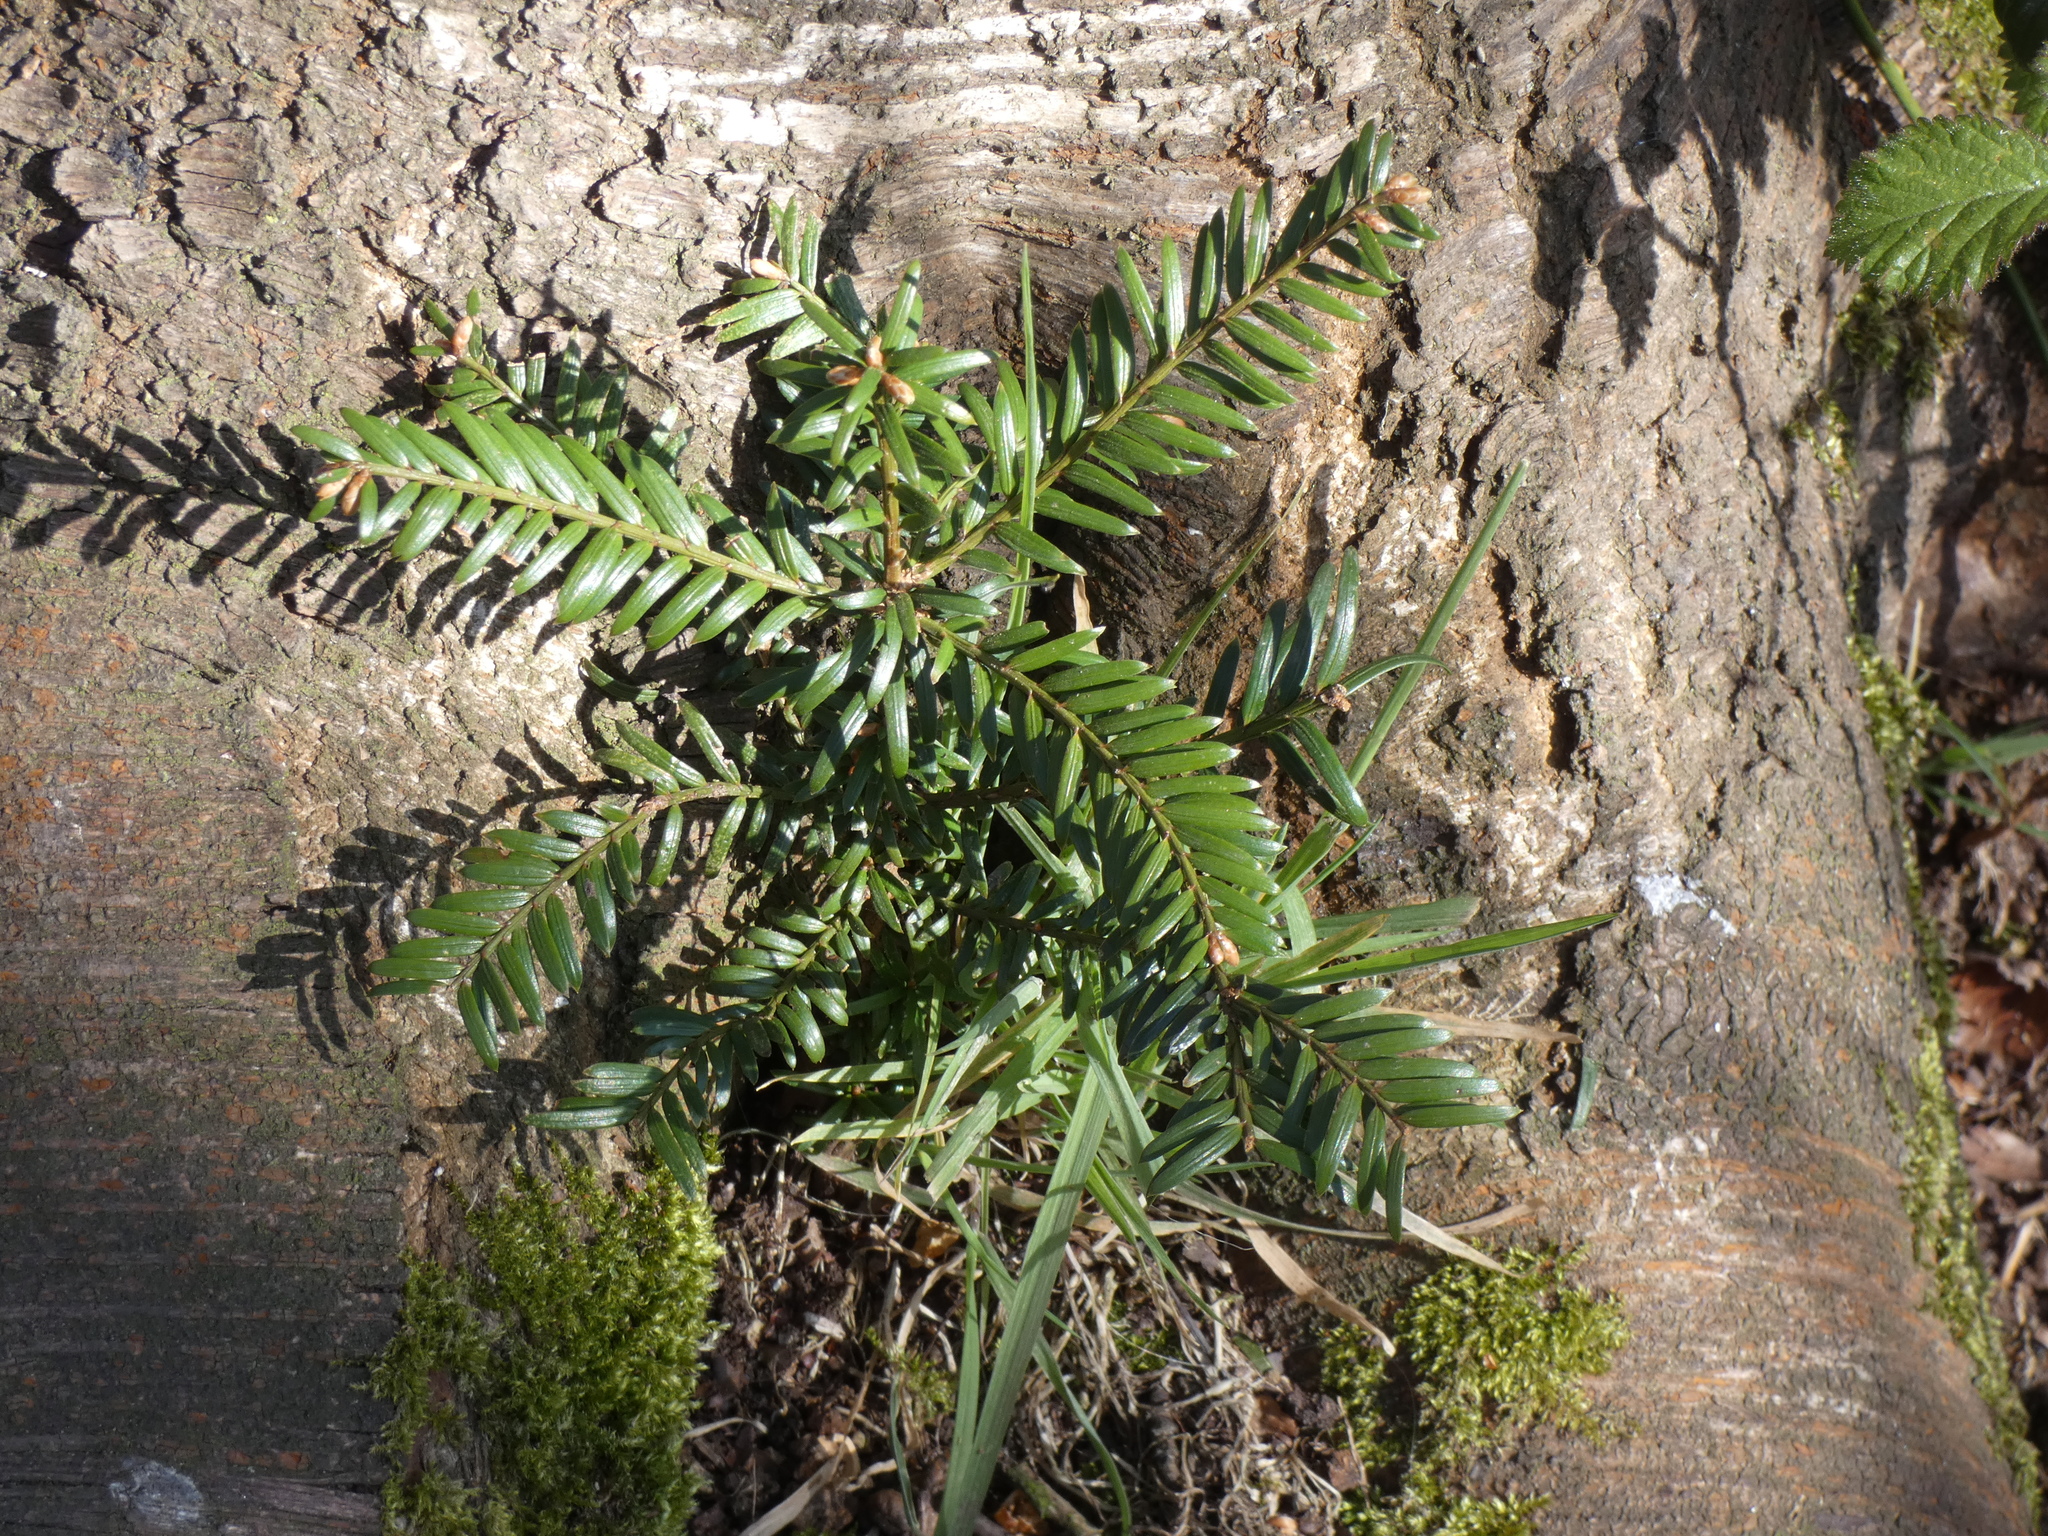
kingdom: Plantae
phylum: Tracheophyta
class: Pinopsida
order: Pinales
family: Taxaceae
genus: Taxus
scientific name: Taxus baccata
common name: Yew
